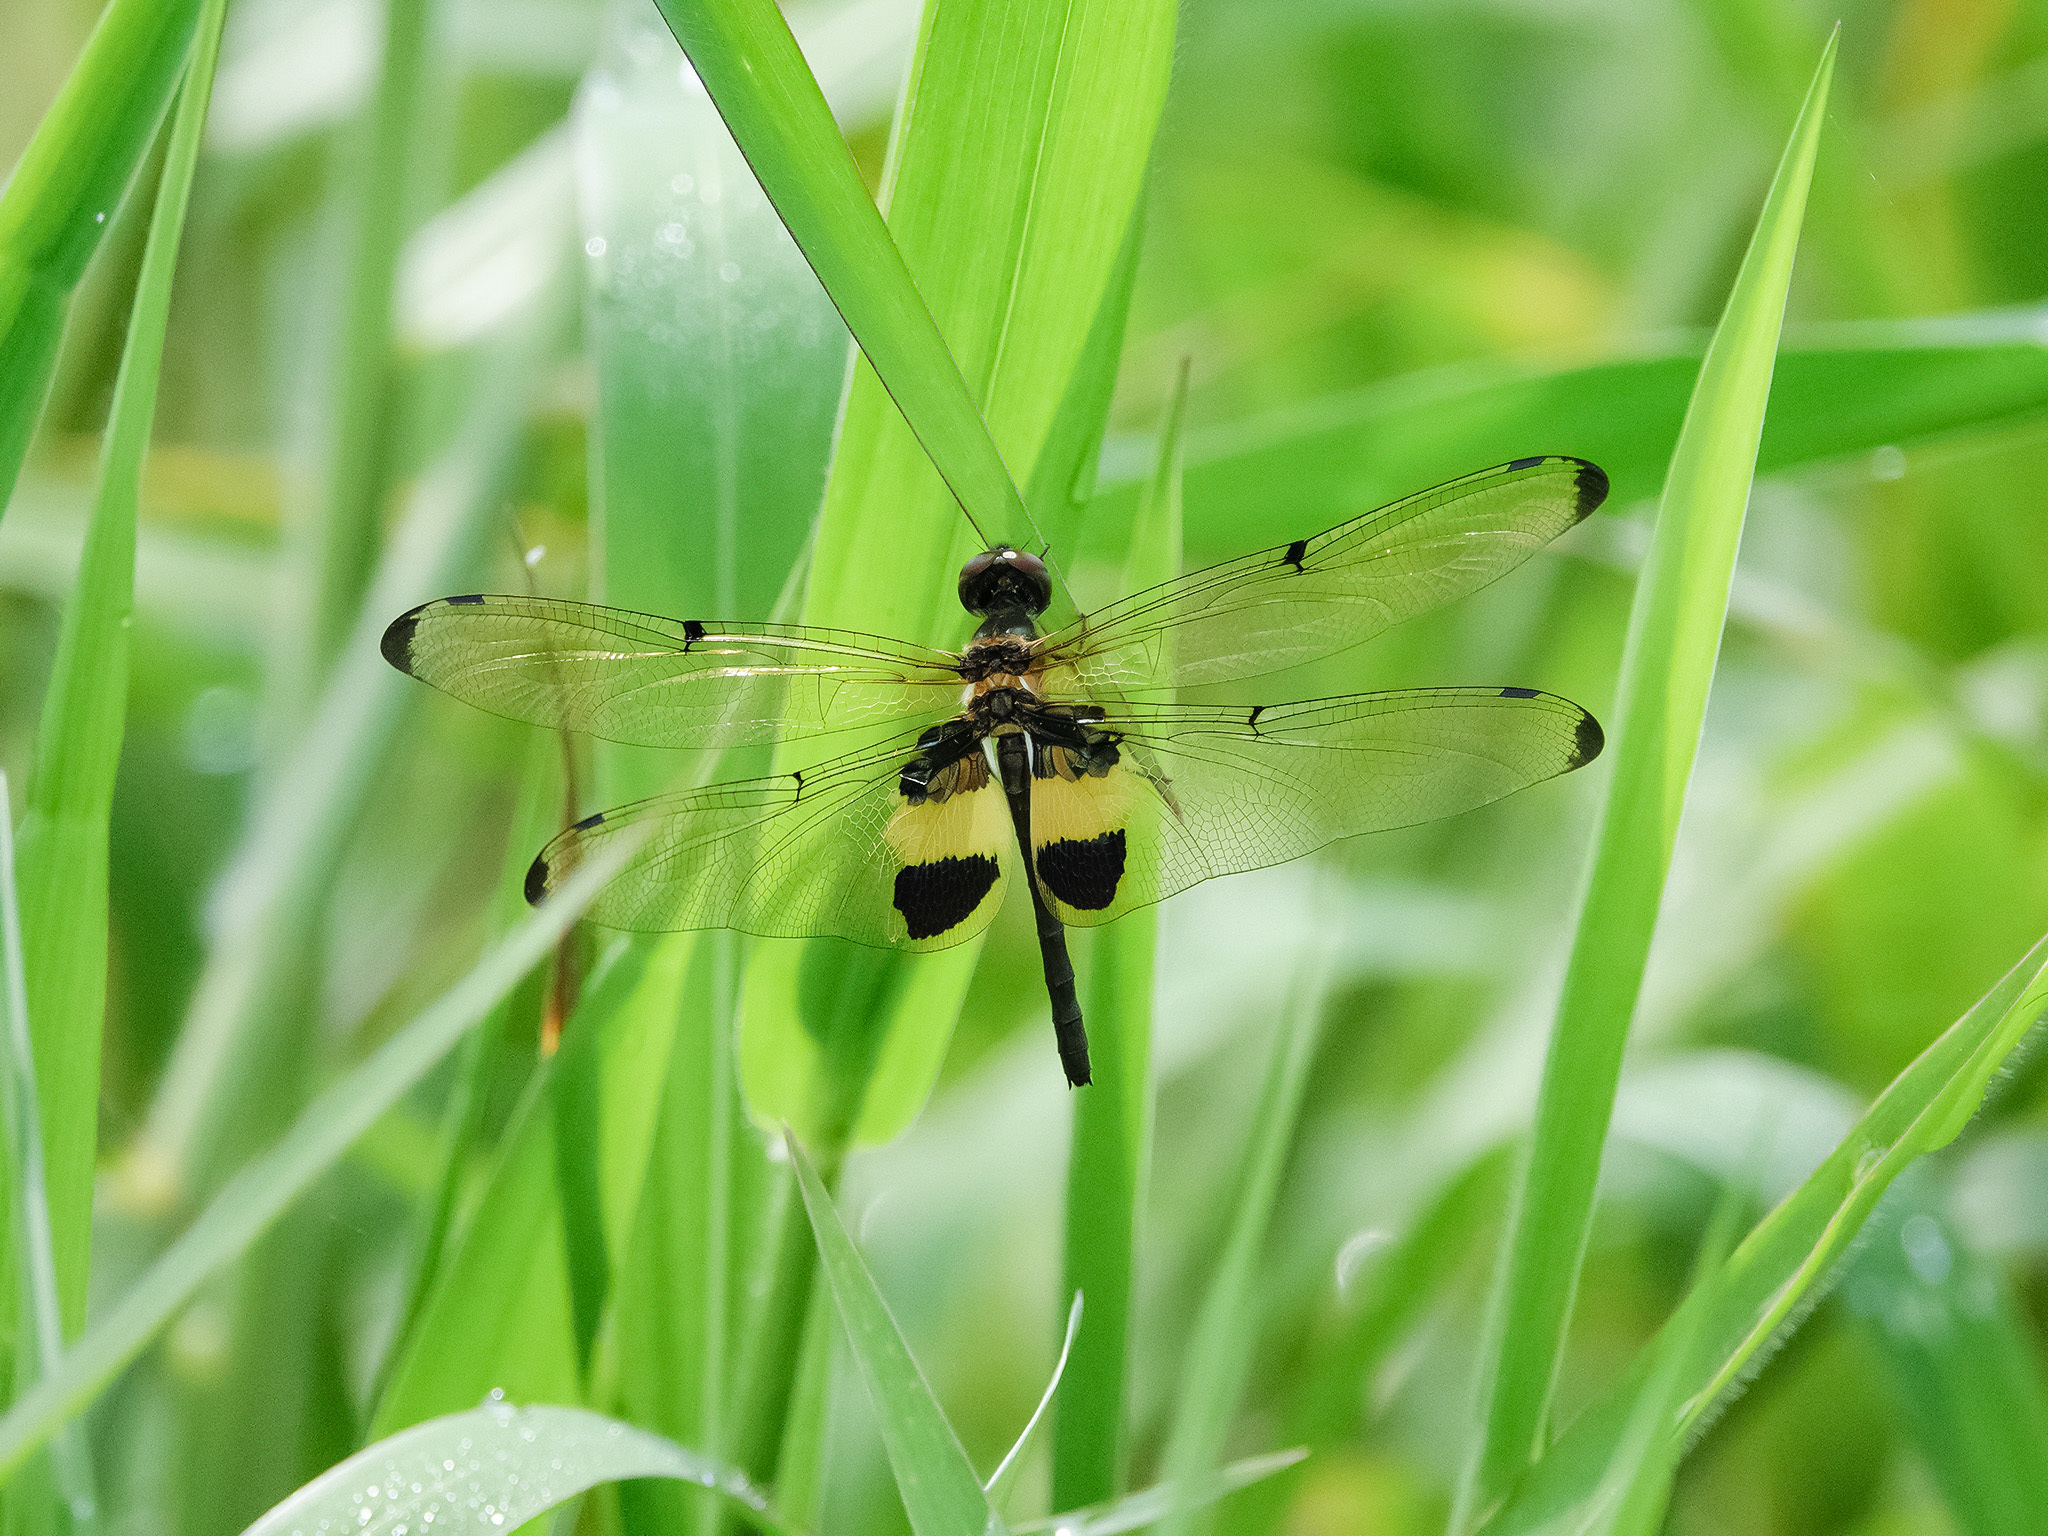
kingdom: Animalia
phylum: Arthropoda
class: Insecta
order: Odonata
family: Libellulidae
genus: Rhyothemis
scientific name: Rhyothemis phyllis
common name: Yellow-barred flutterer
